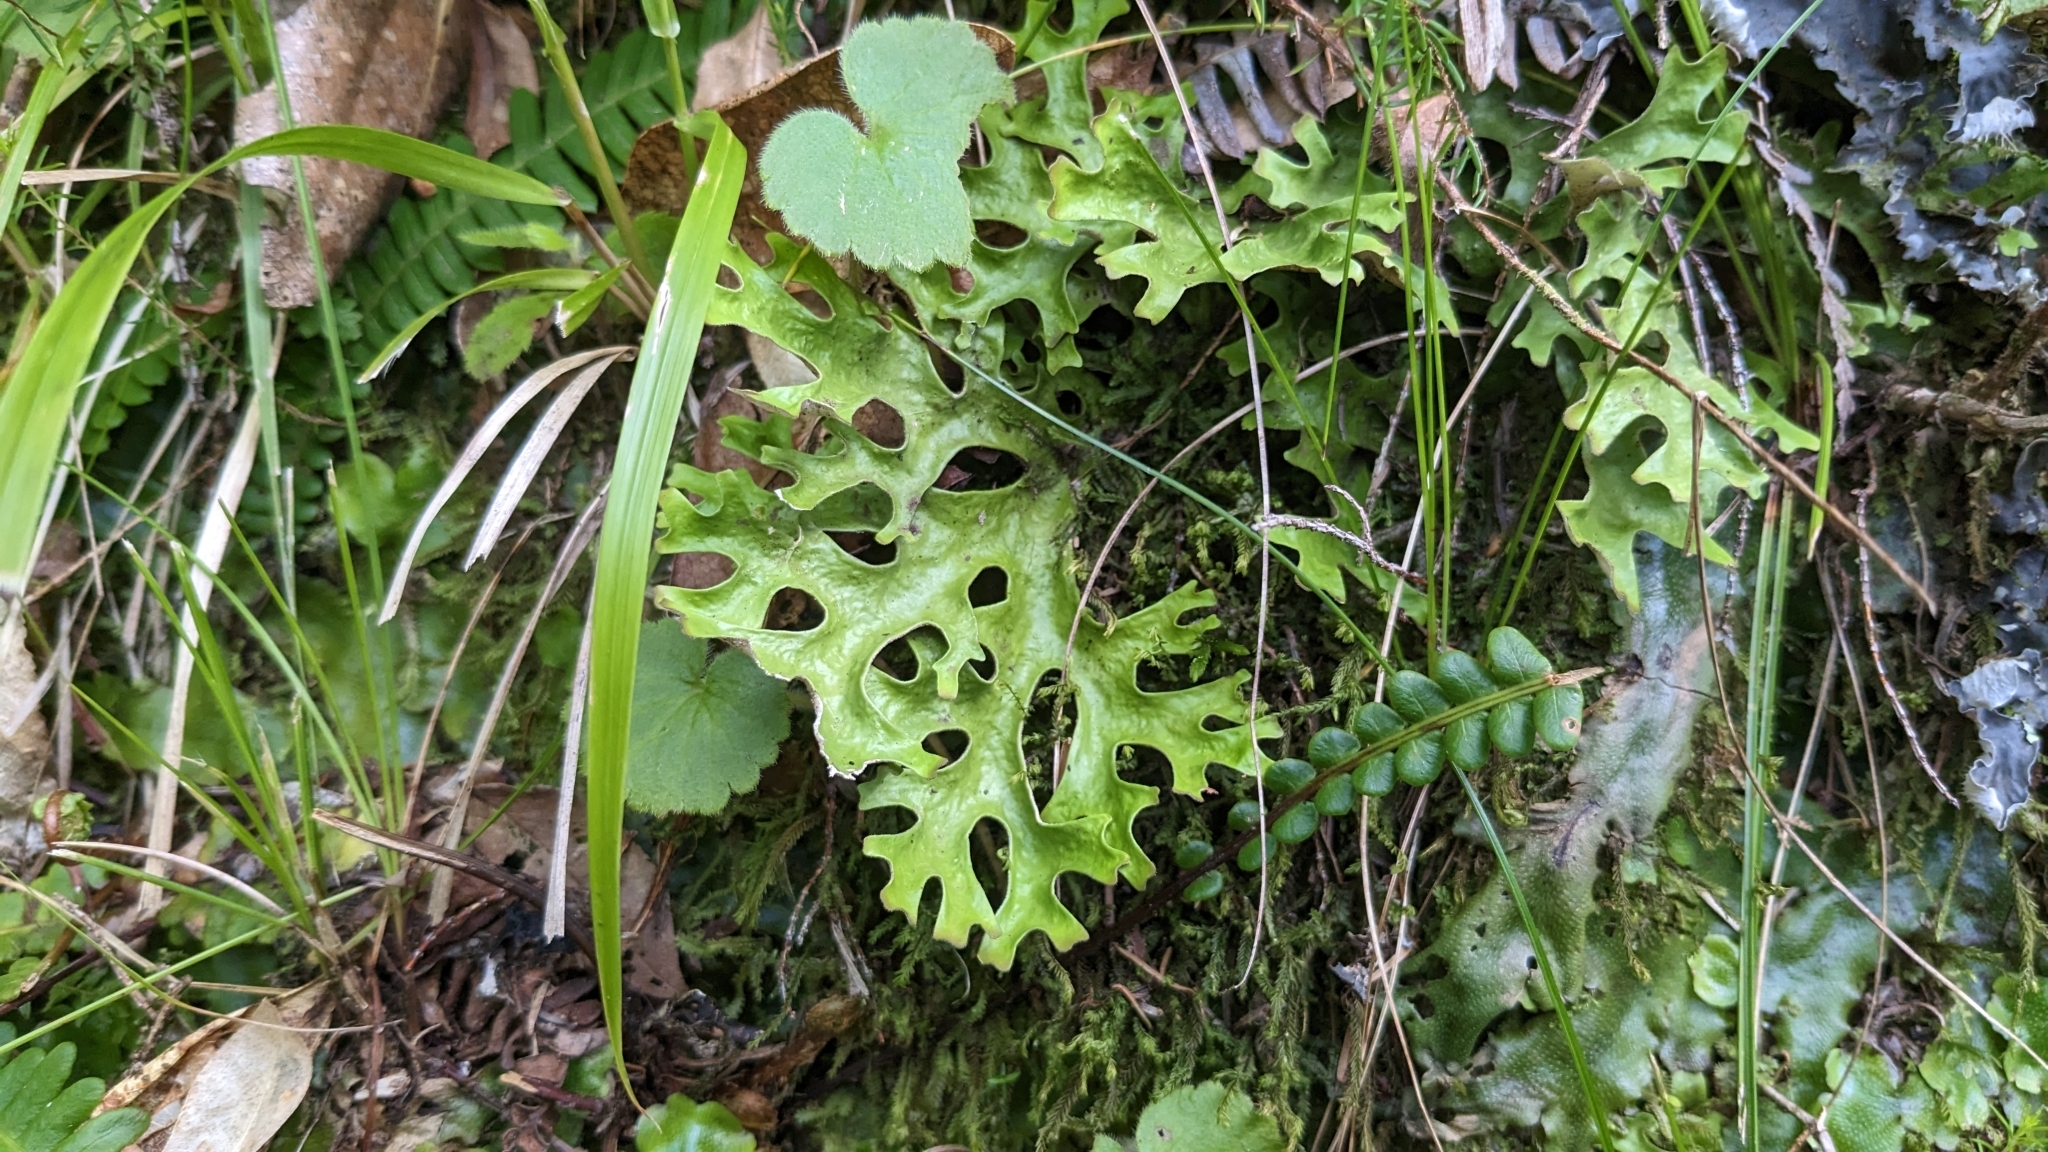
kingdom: Fungi
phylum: Ascomycota
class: Lecanoromycetes
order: Peltigerales
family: Lobariaceae
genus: Sticta
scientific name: Sticta canariensis
